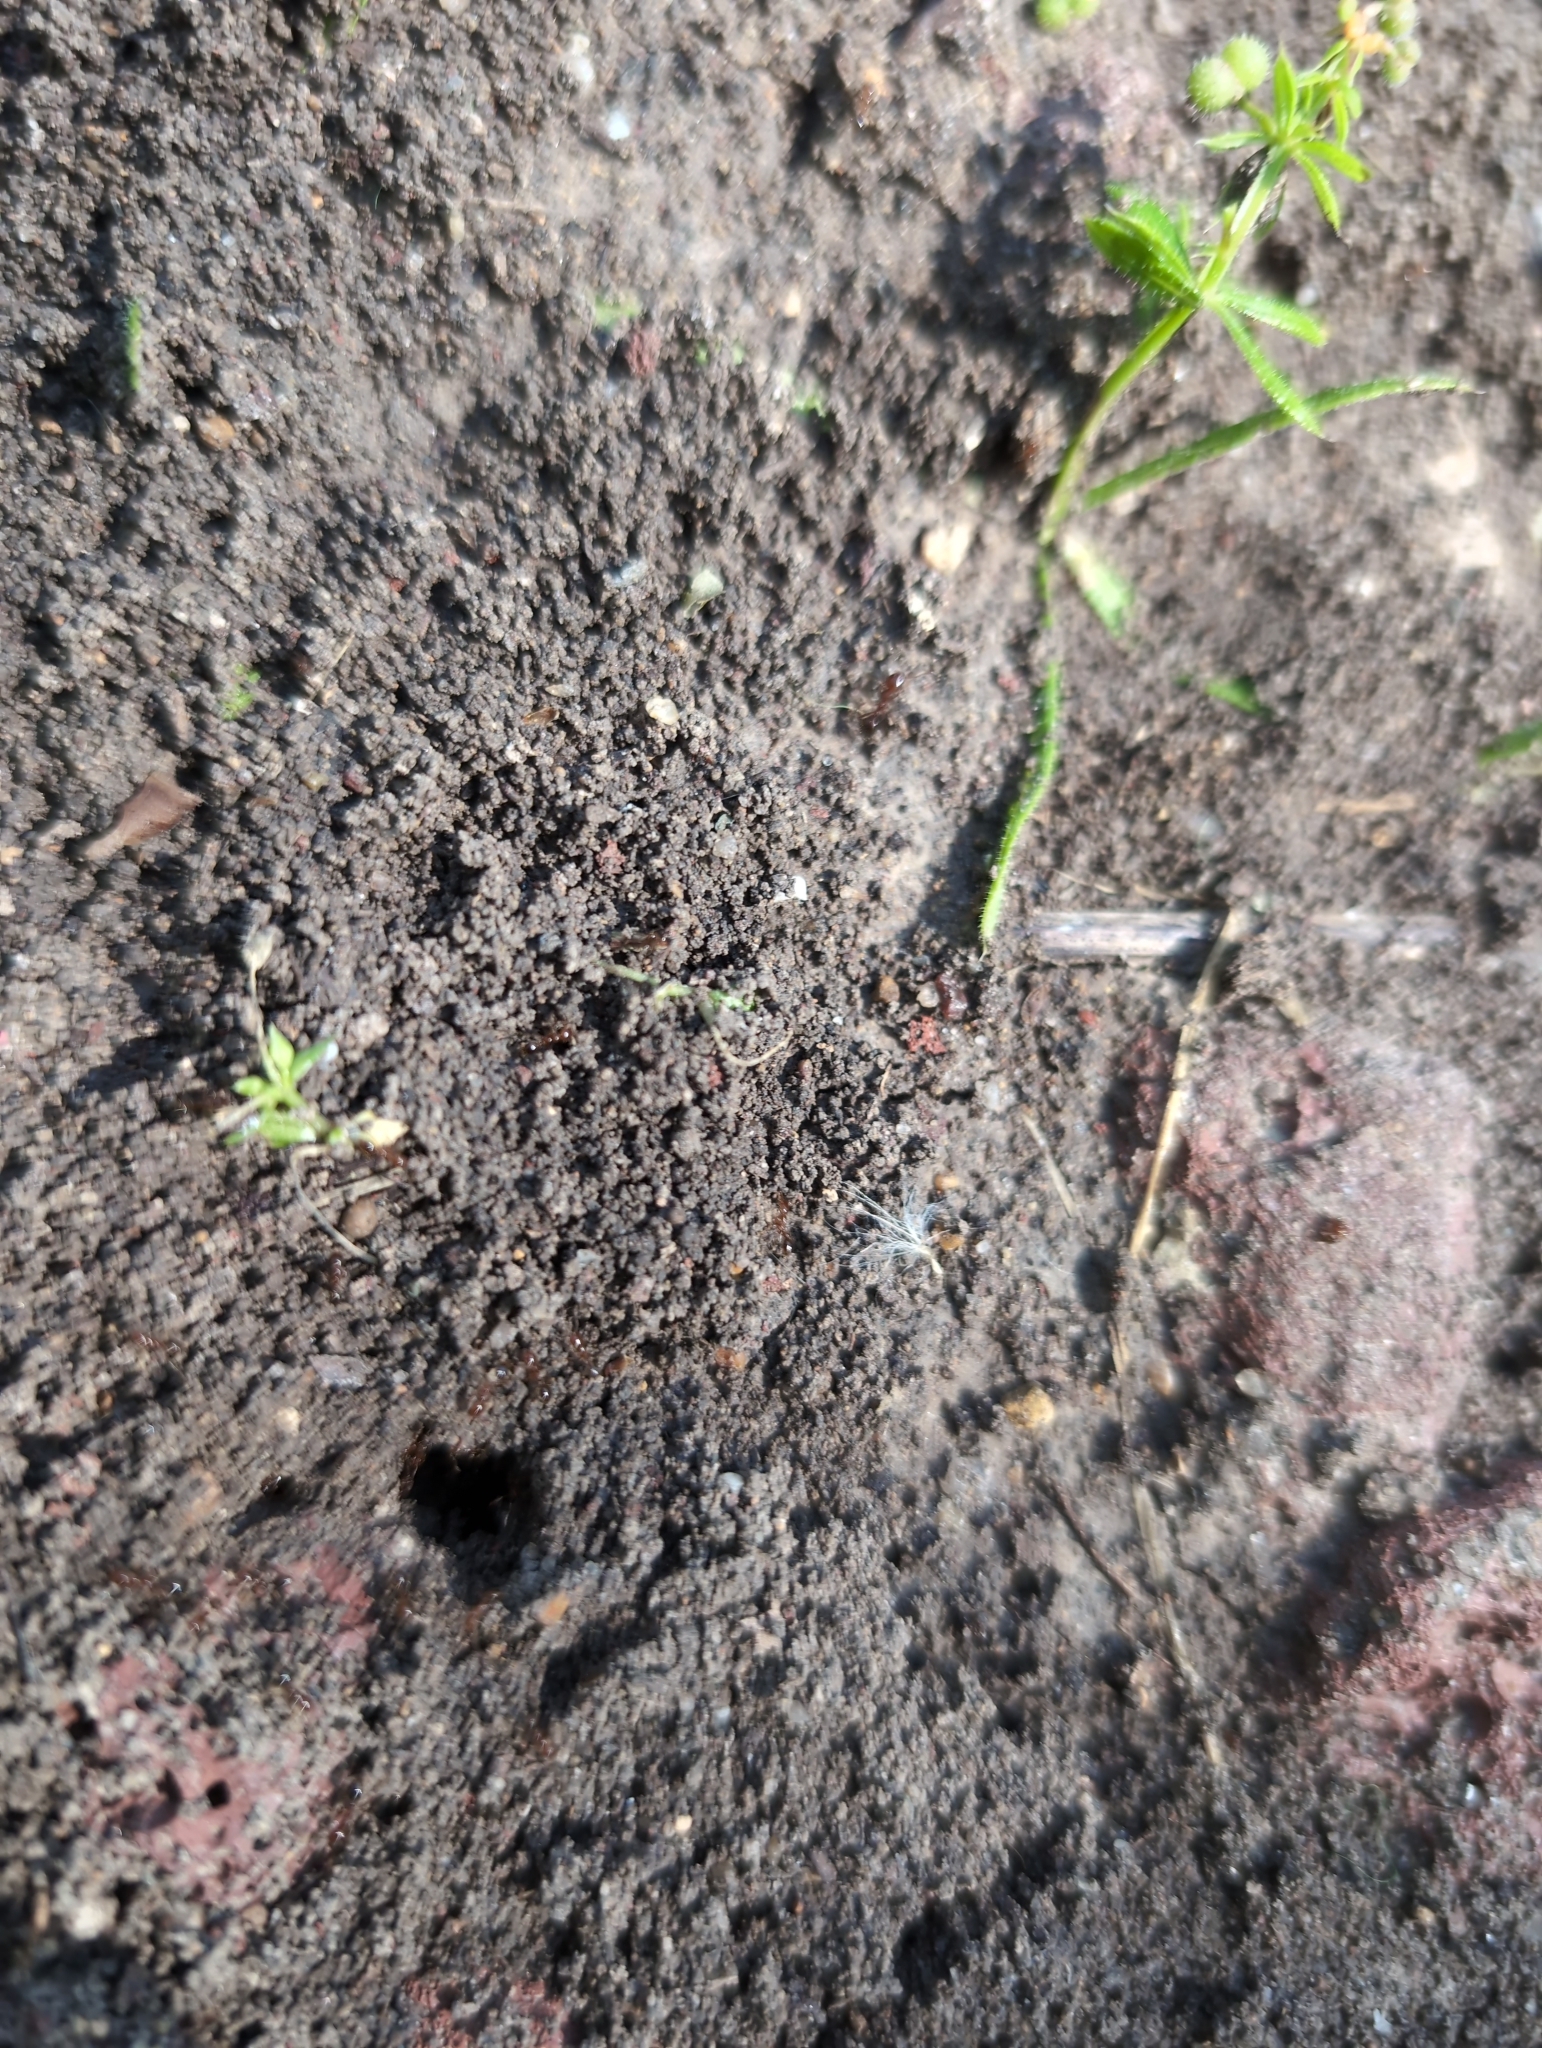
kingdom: Animalia
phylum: Arthropoda
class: Insecta
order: Hymenoptera
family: Formicidae
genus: Solenopsis
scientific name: Solenopsis invicta
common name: Red imported fire ant
